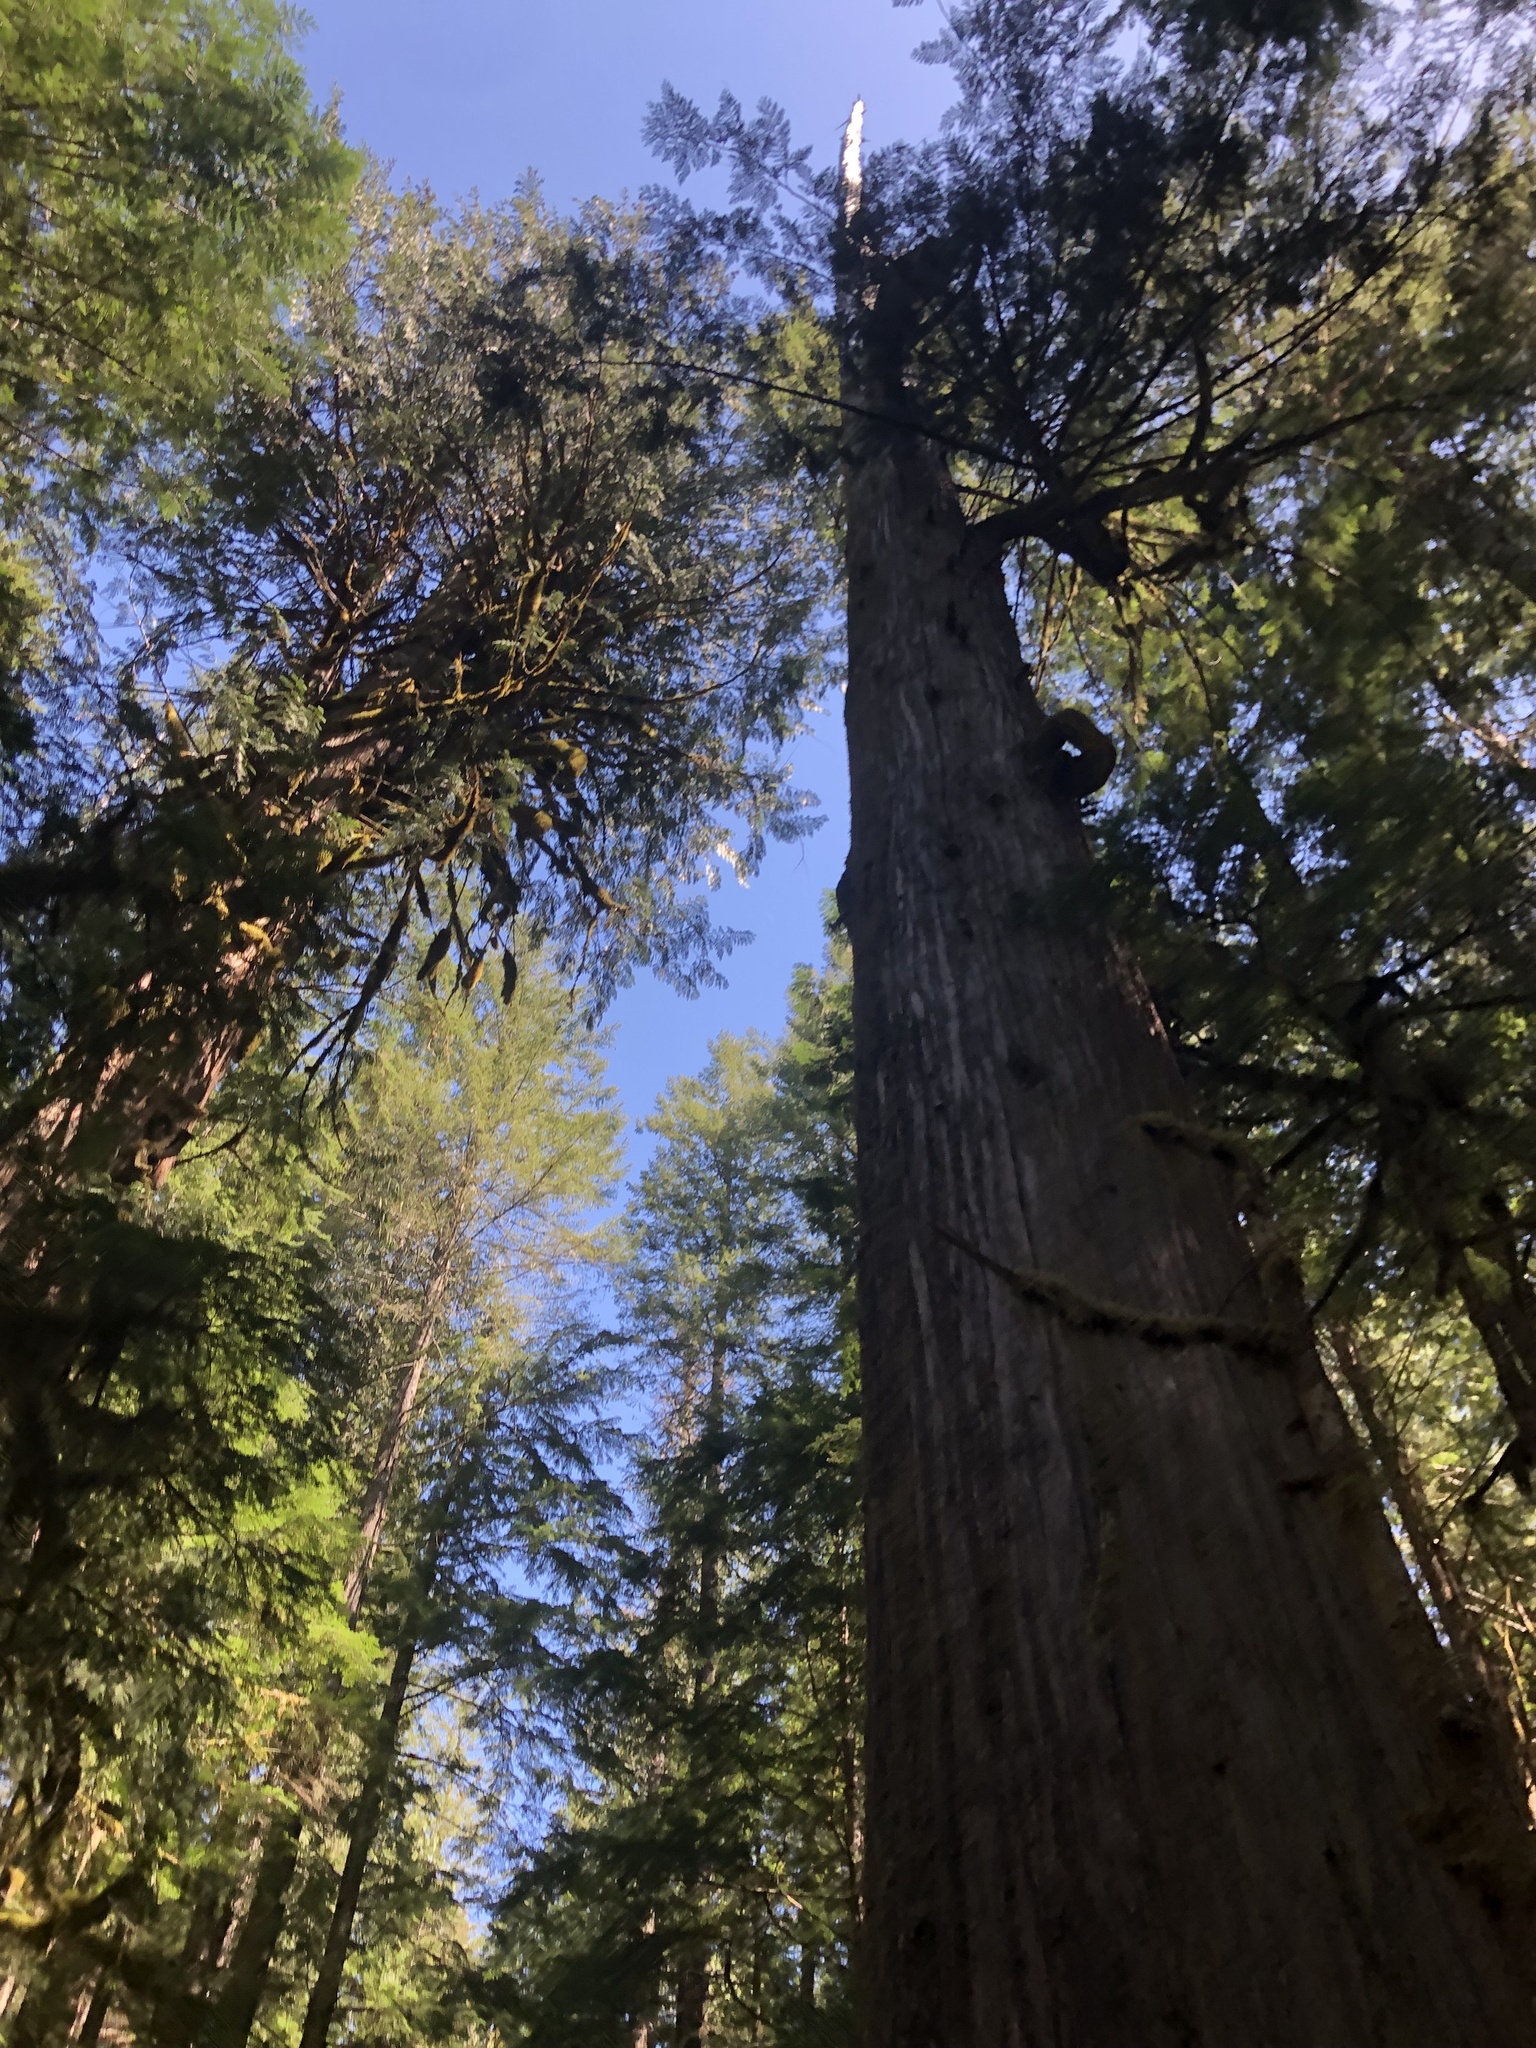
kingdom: Plantae
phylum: Tracheophyta
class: Pinopsida
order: Pinales
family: Cupressaceae
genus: Thuja
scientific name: Thuja plicata
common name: Western red-cedar
